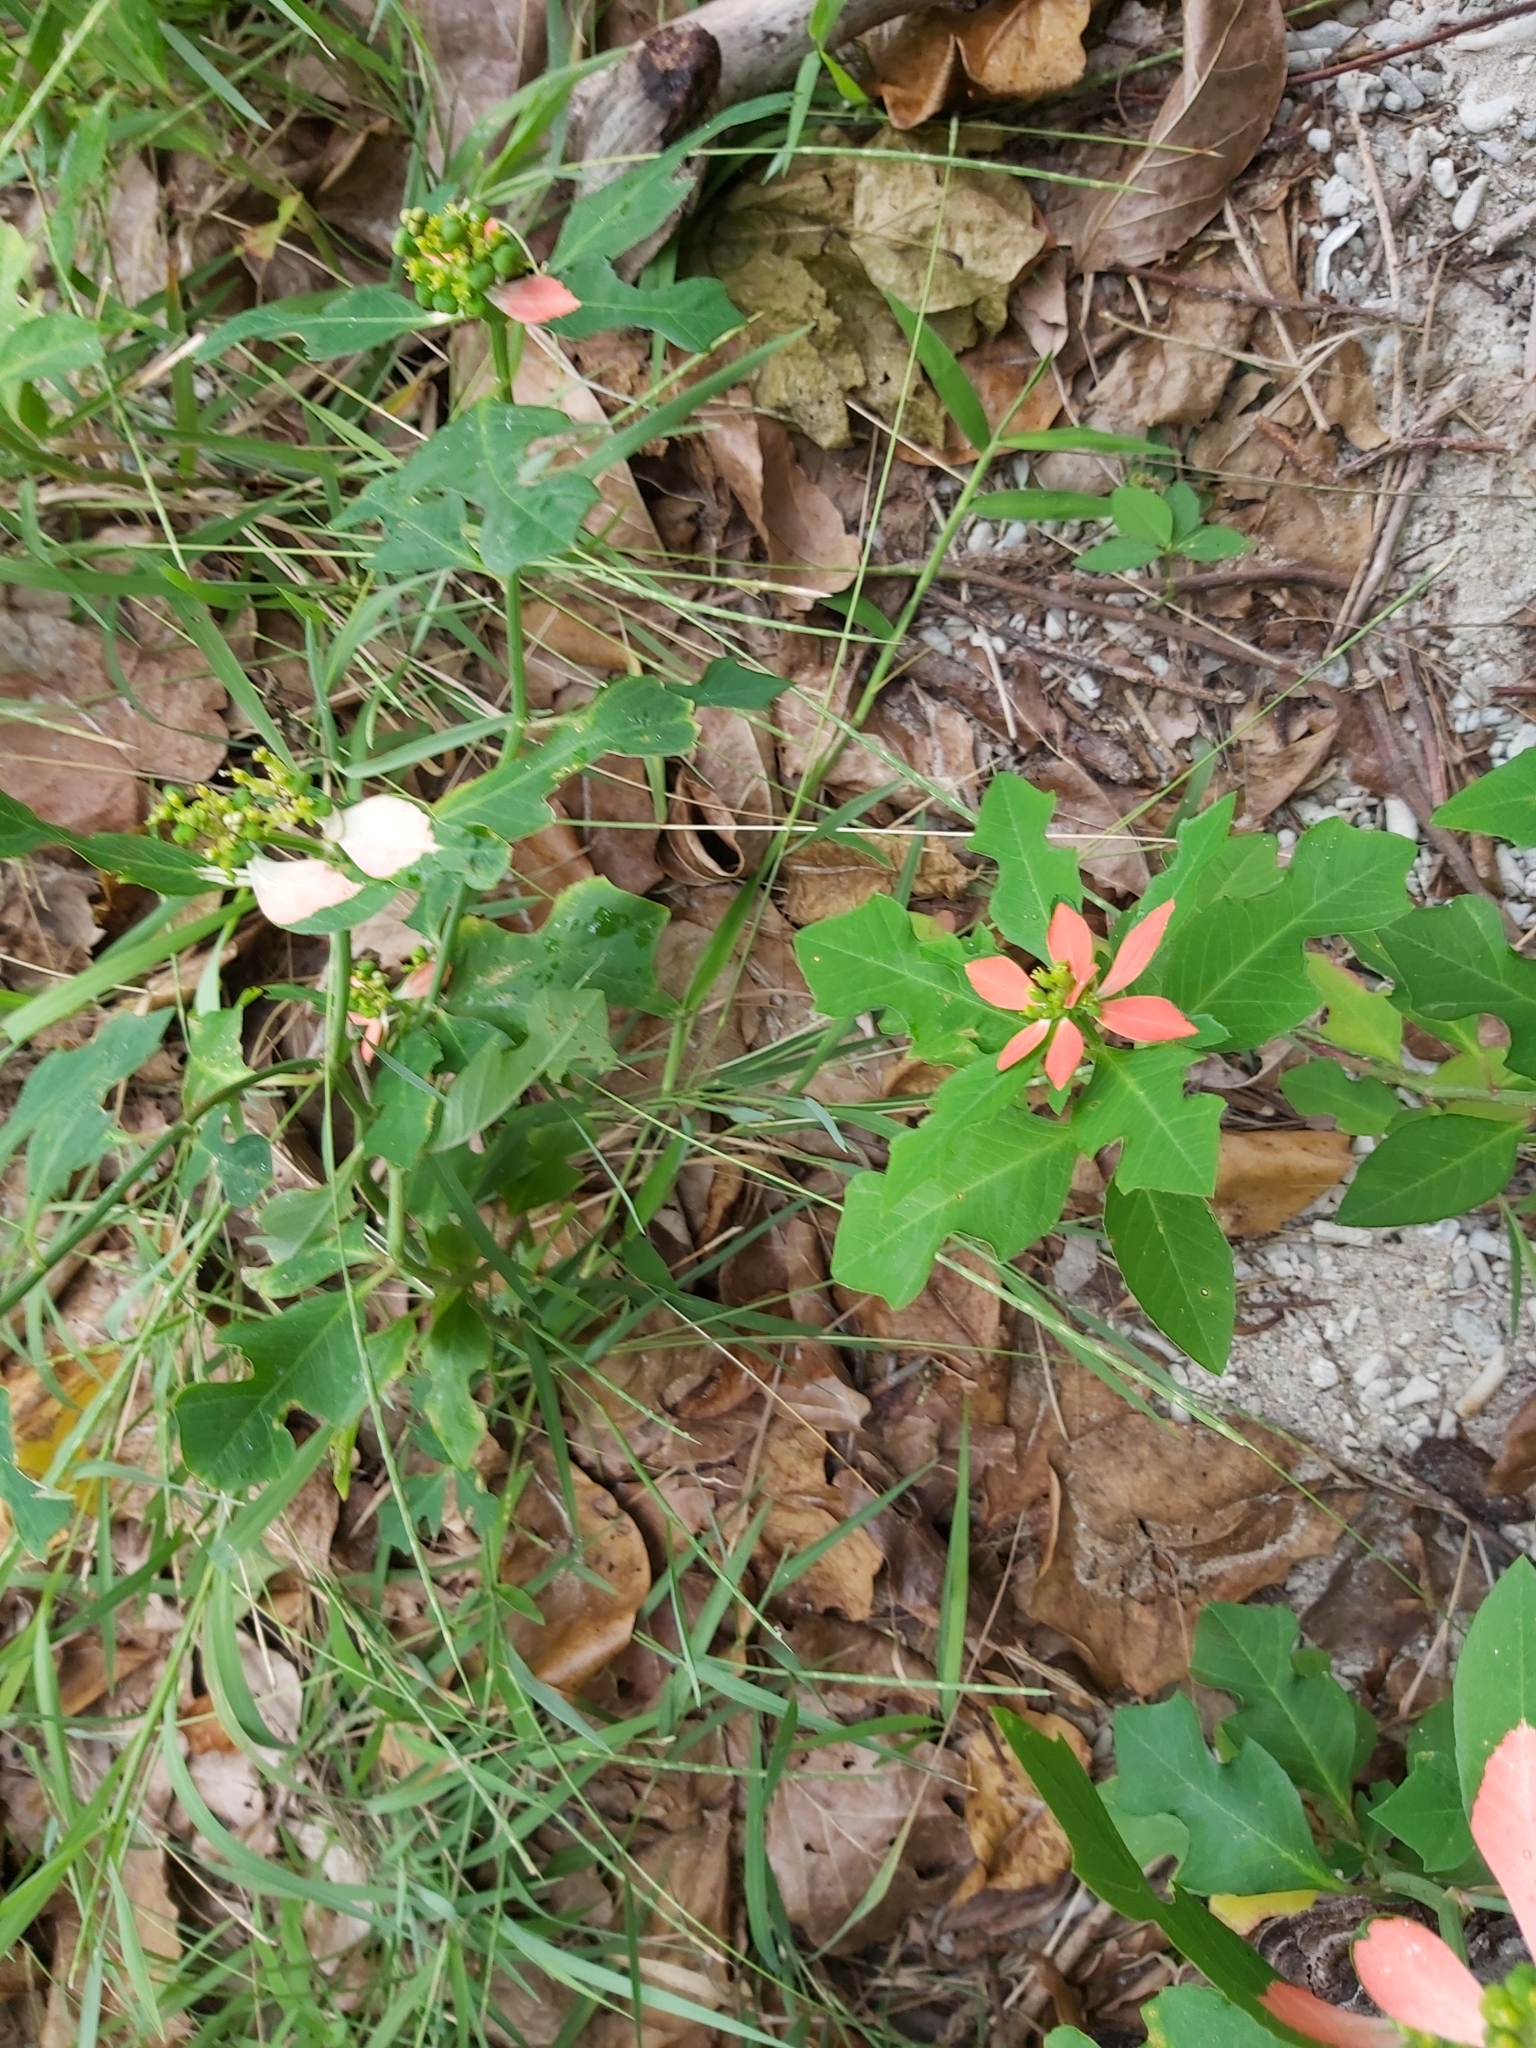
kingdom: Plantae
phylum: Tracheophyta
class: Magnoliopsida
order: Malpighiales
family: Euphorbiaceae
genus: Euphorbia
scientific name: Euphorbia heterophylla
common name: Mexican fireplant
